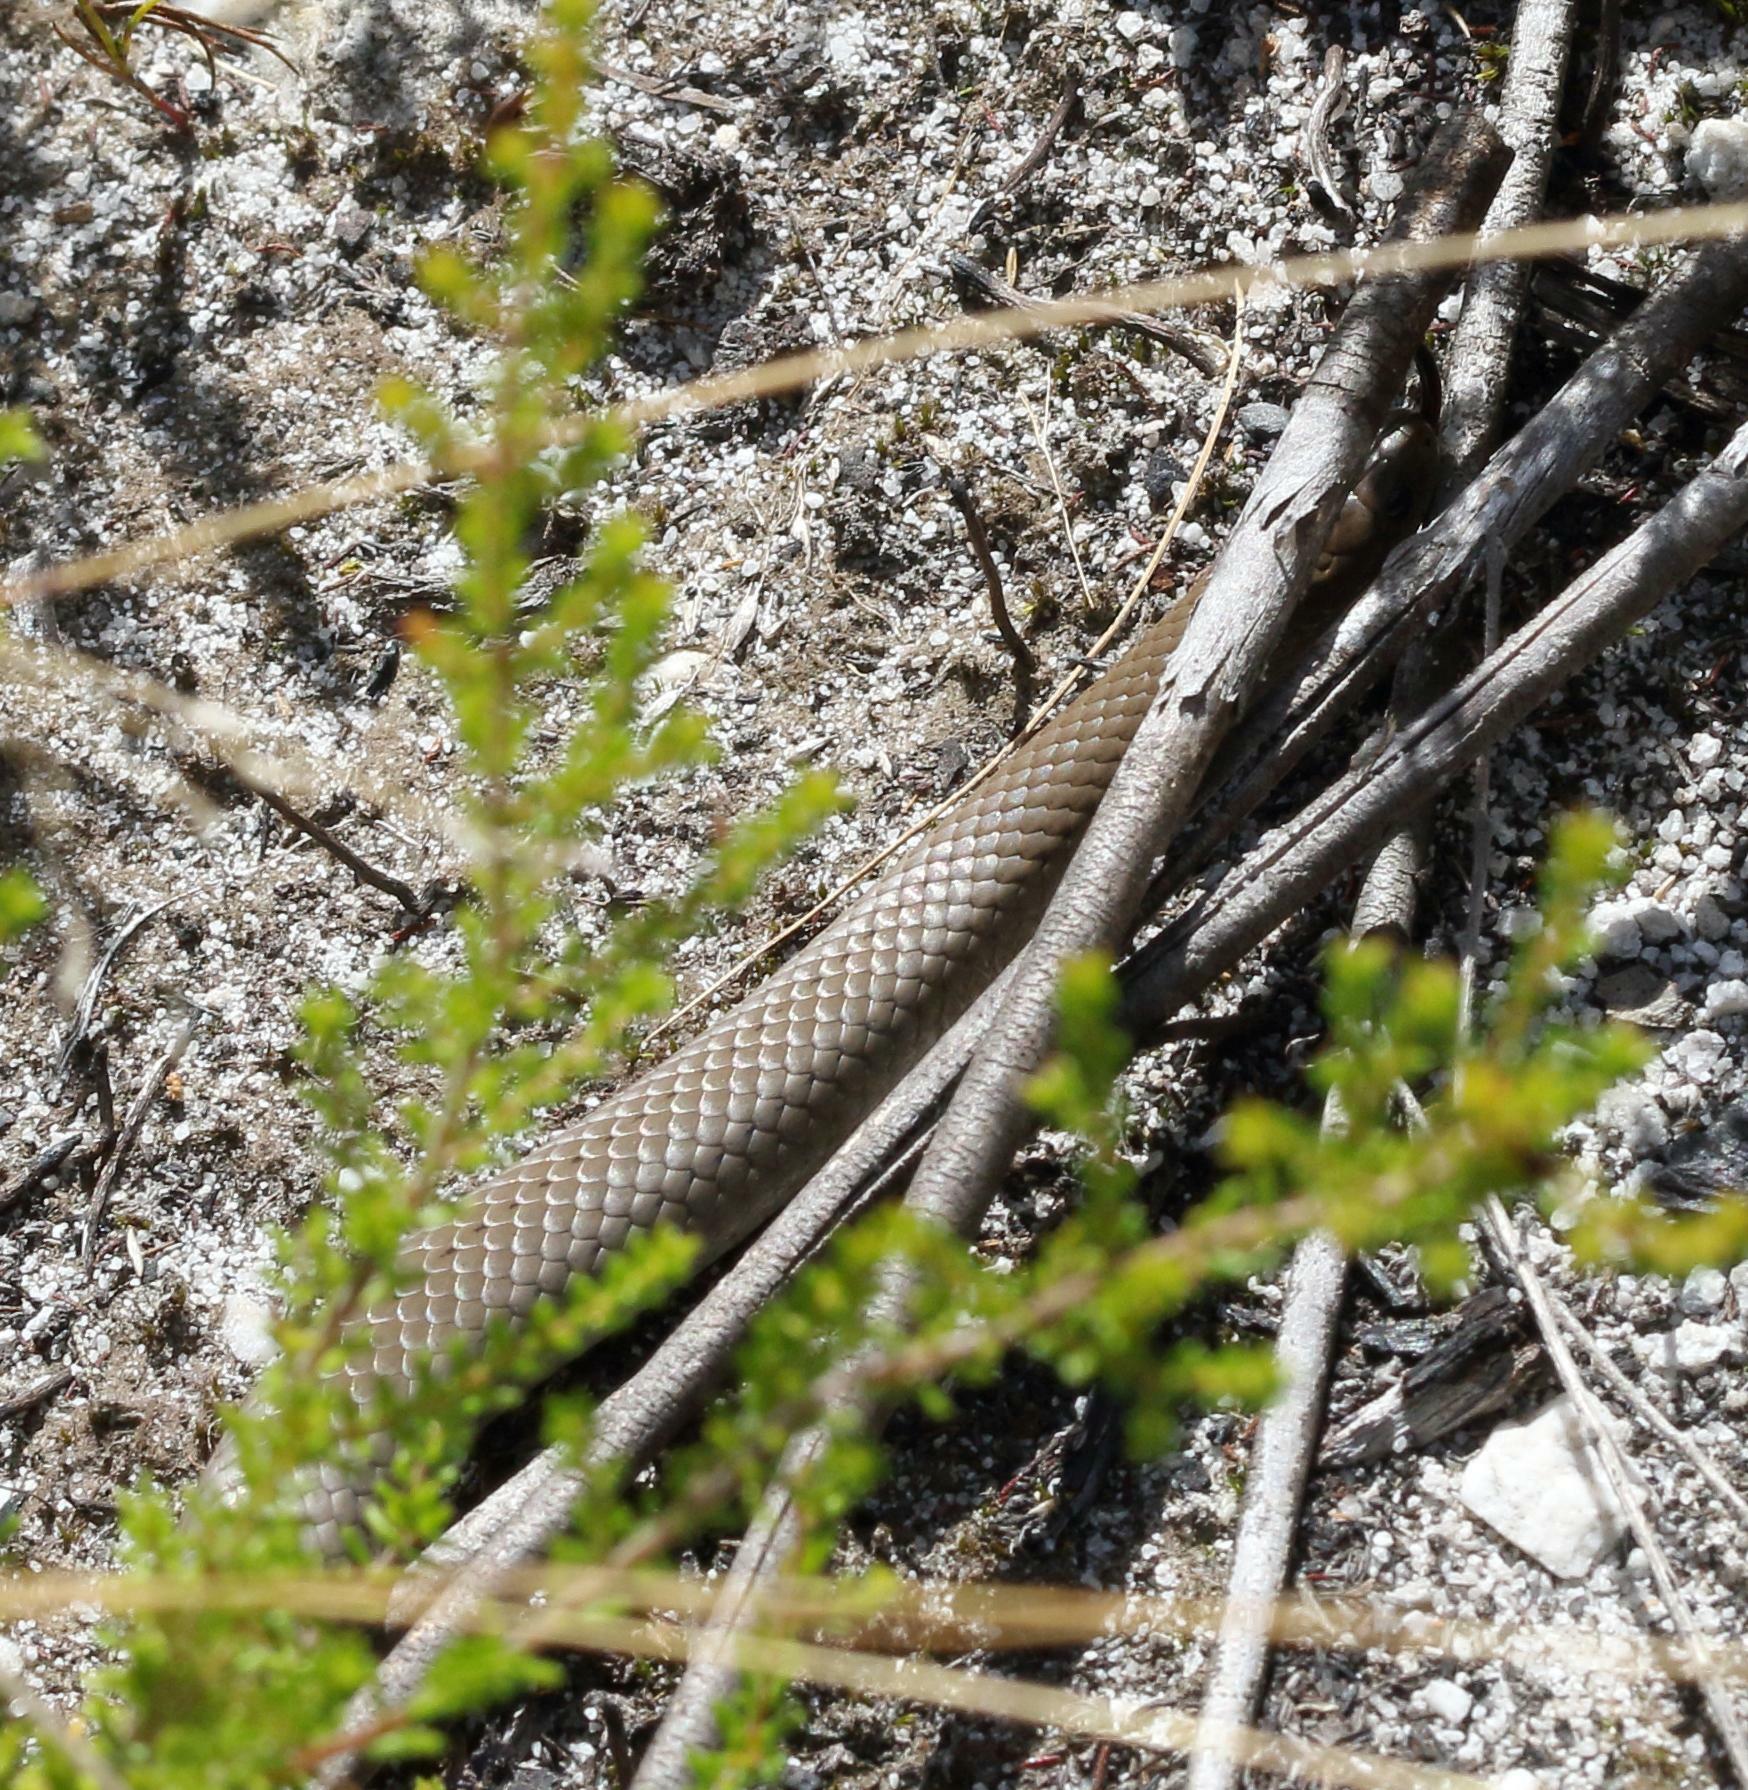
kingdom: Animalia
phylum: Chordata
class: Squamata
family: Pseudoxyrhophiidae
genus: Duberria
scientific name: Duberria lutrix
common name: Common slug eater
